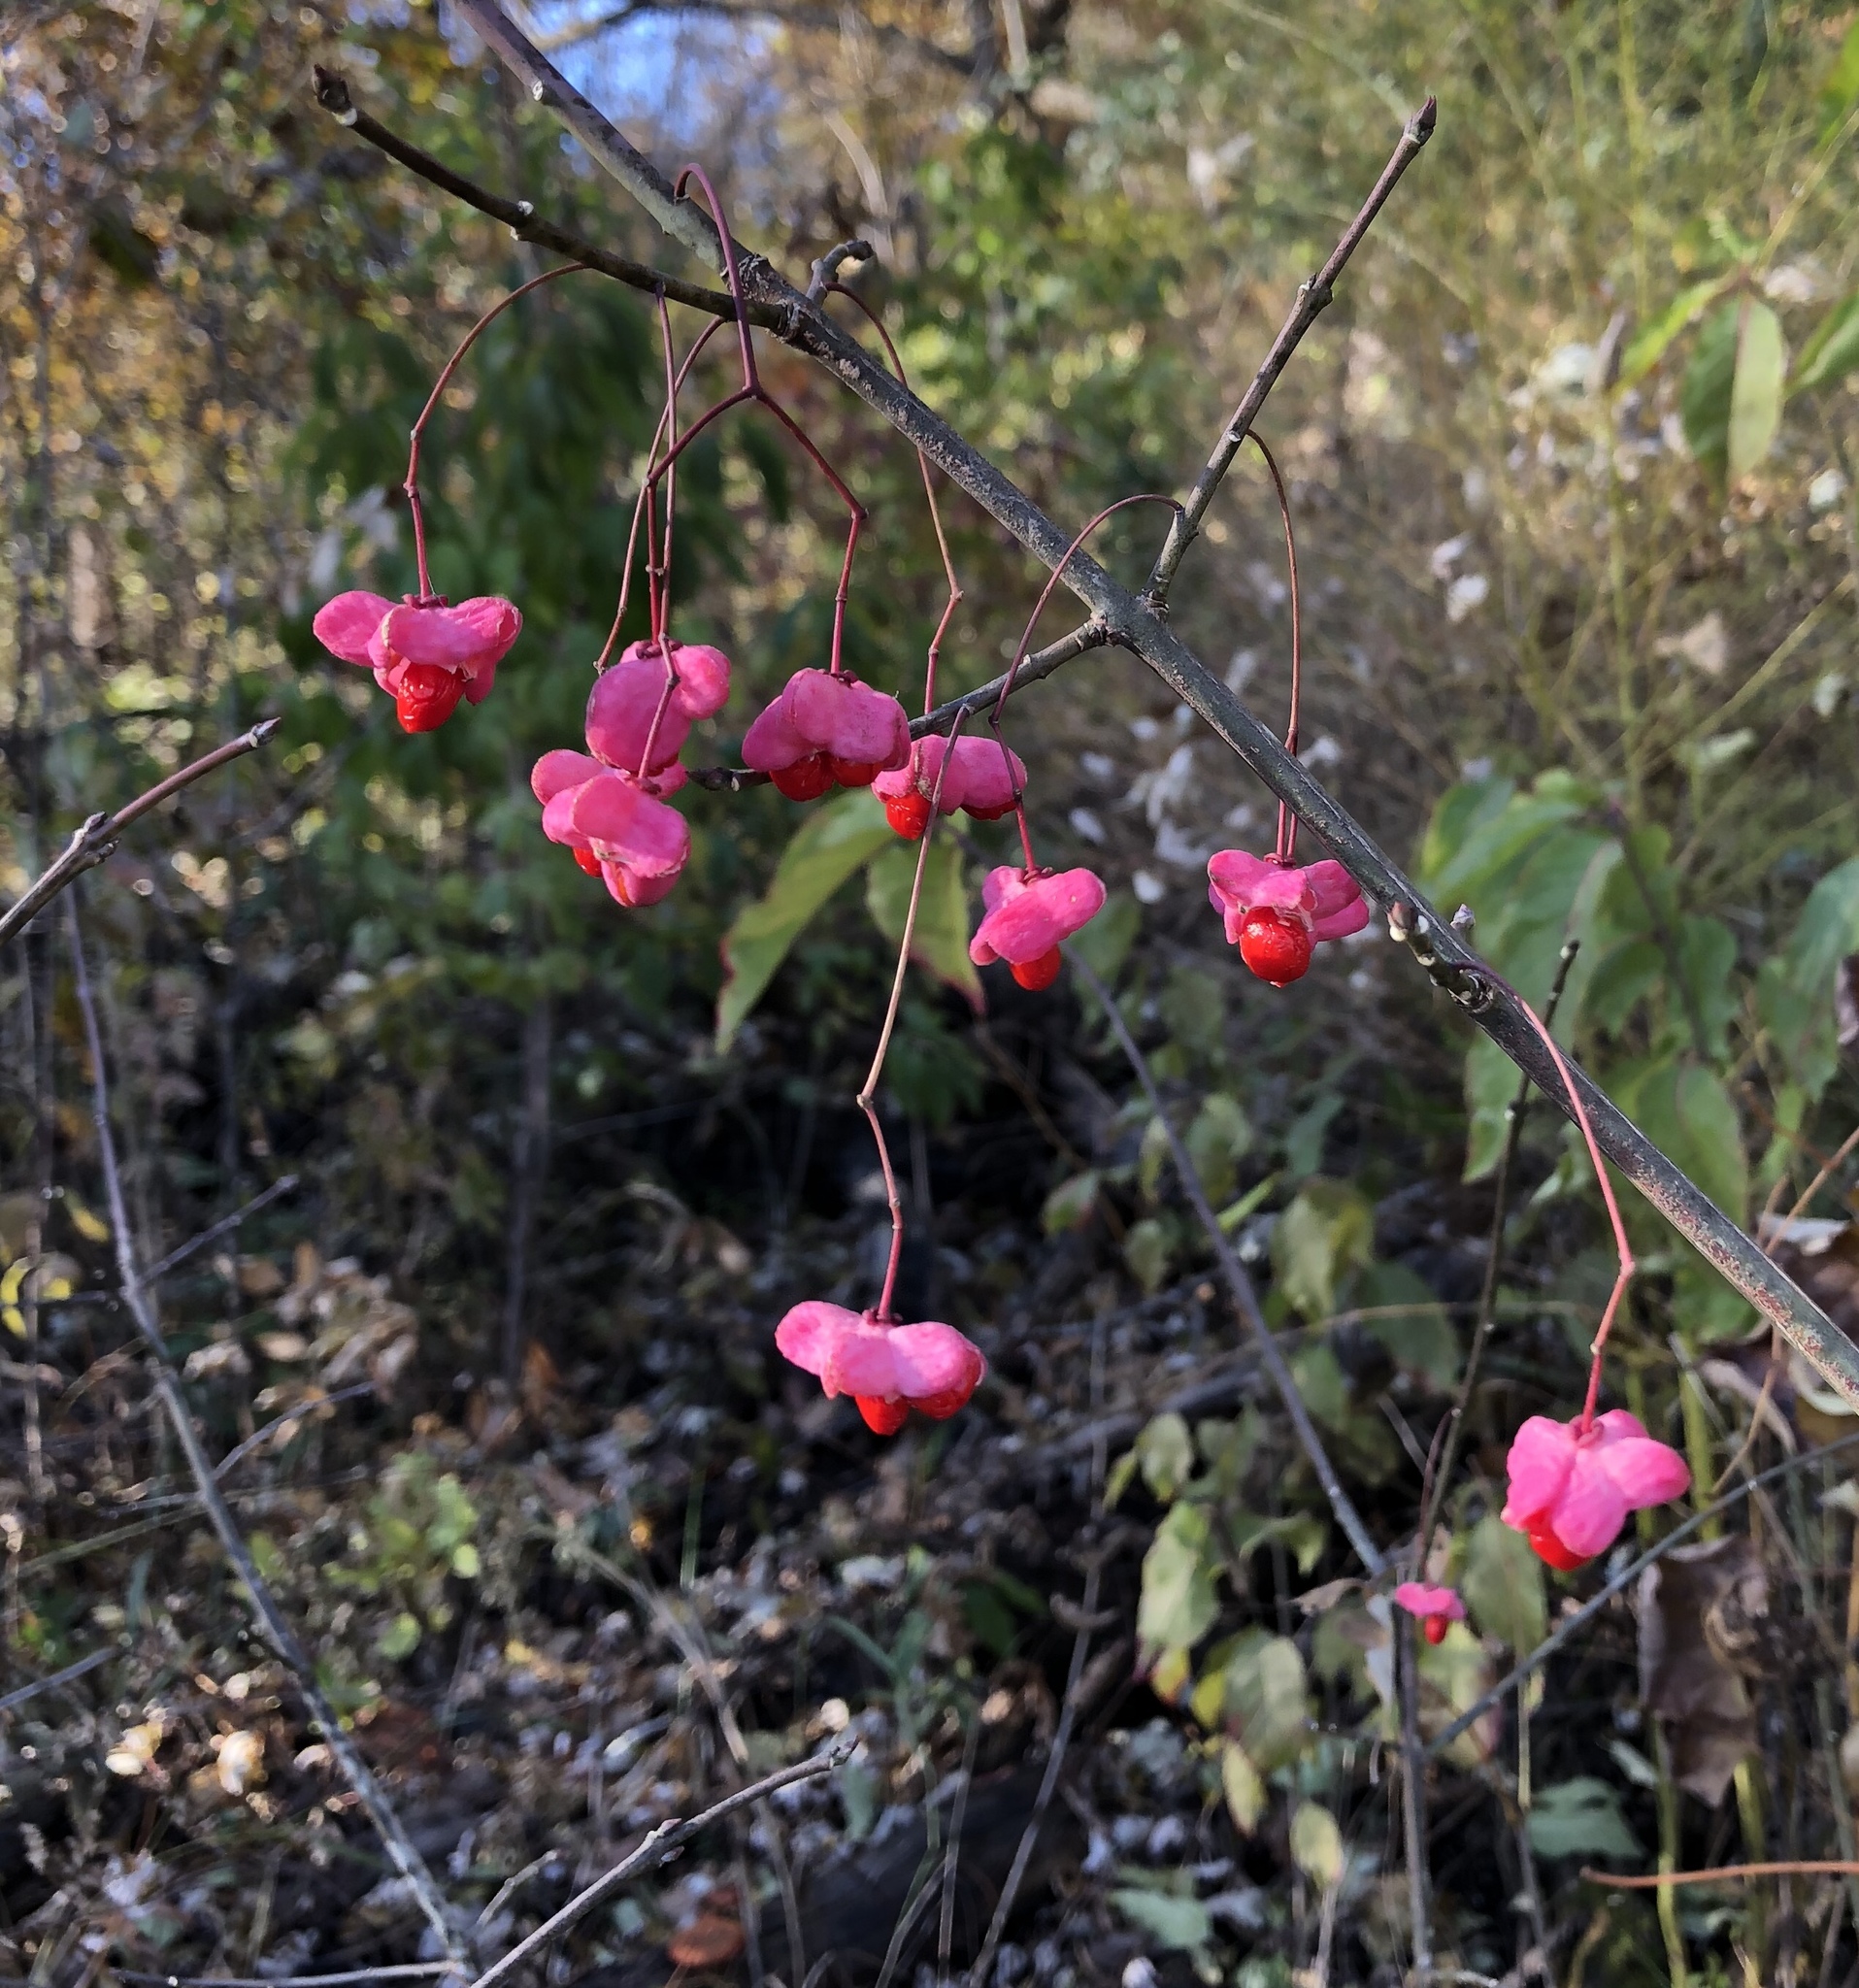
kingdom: Plantae
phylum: Tracheophyta
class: Magnoliopsida
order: Celastrales
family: Celastraceae
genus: Euonymus
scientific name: Euonymus atropurpureus
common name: Eastern wahoo
